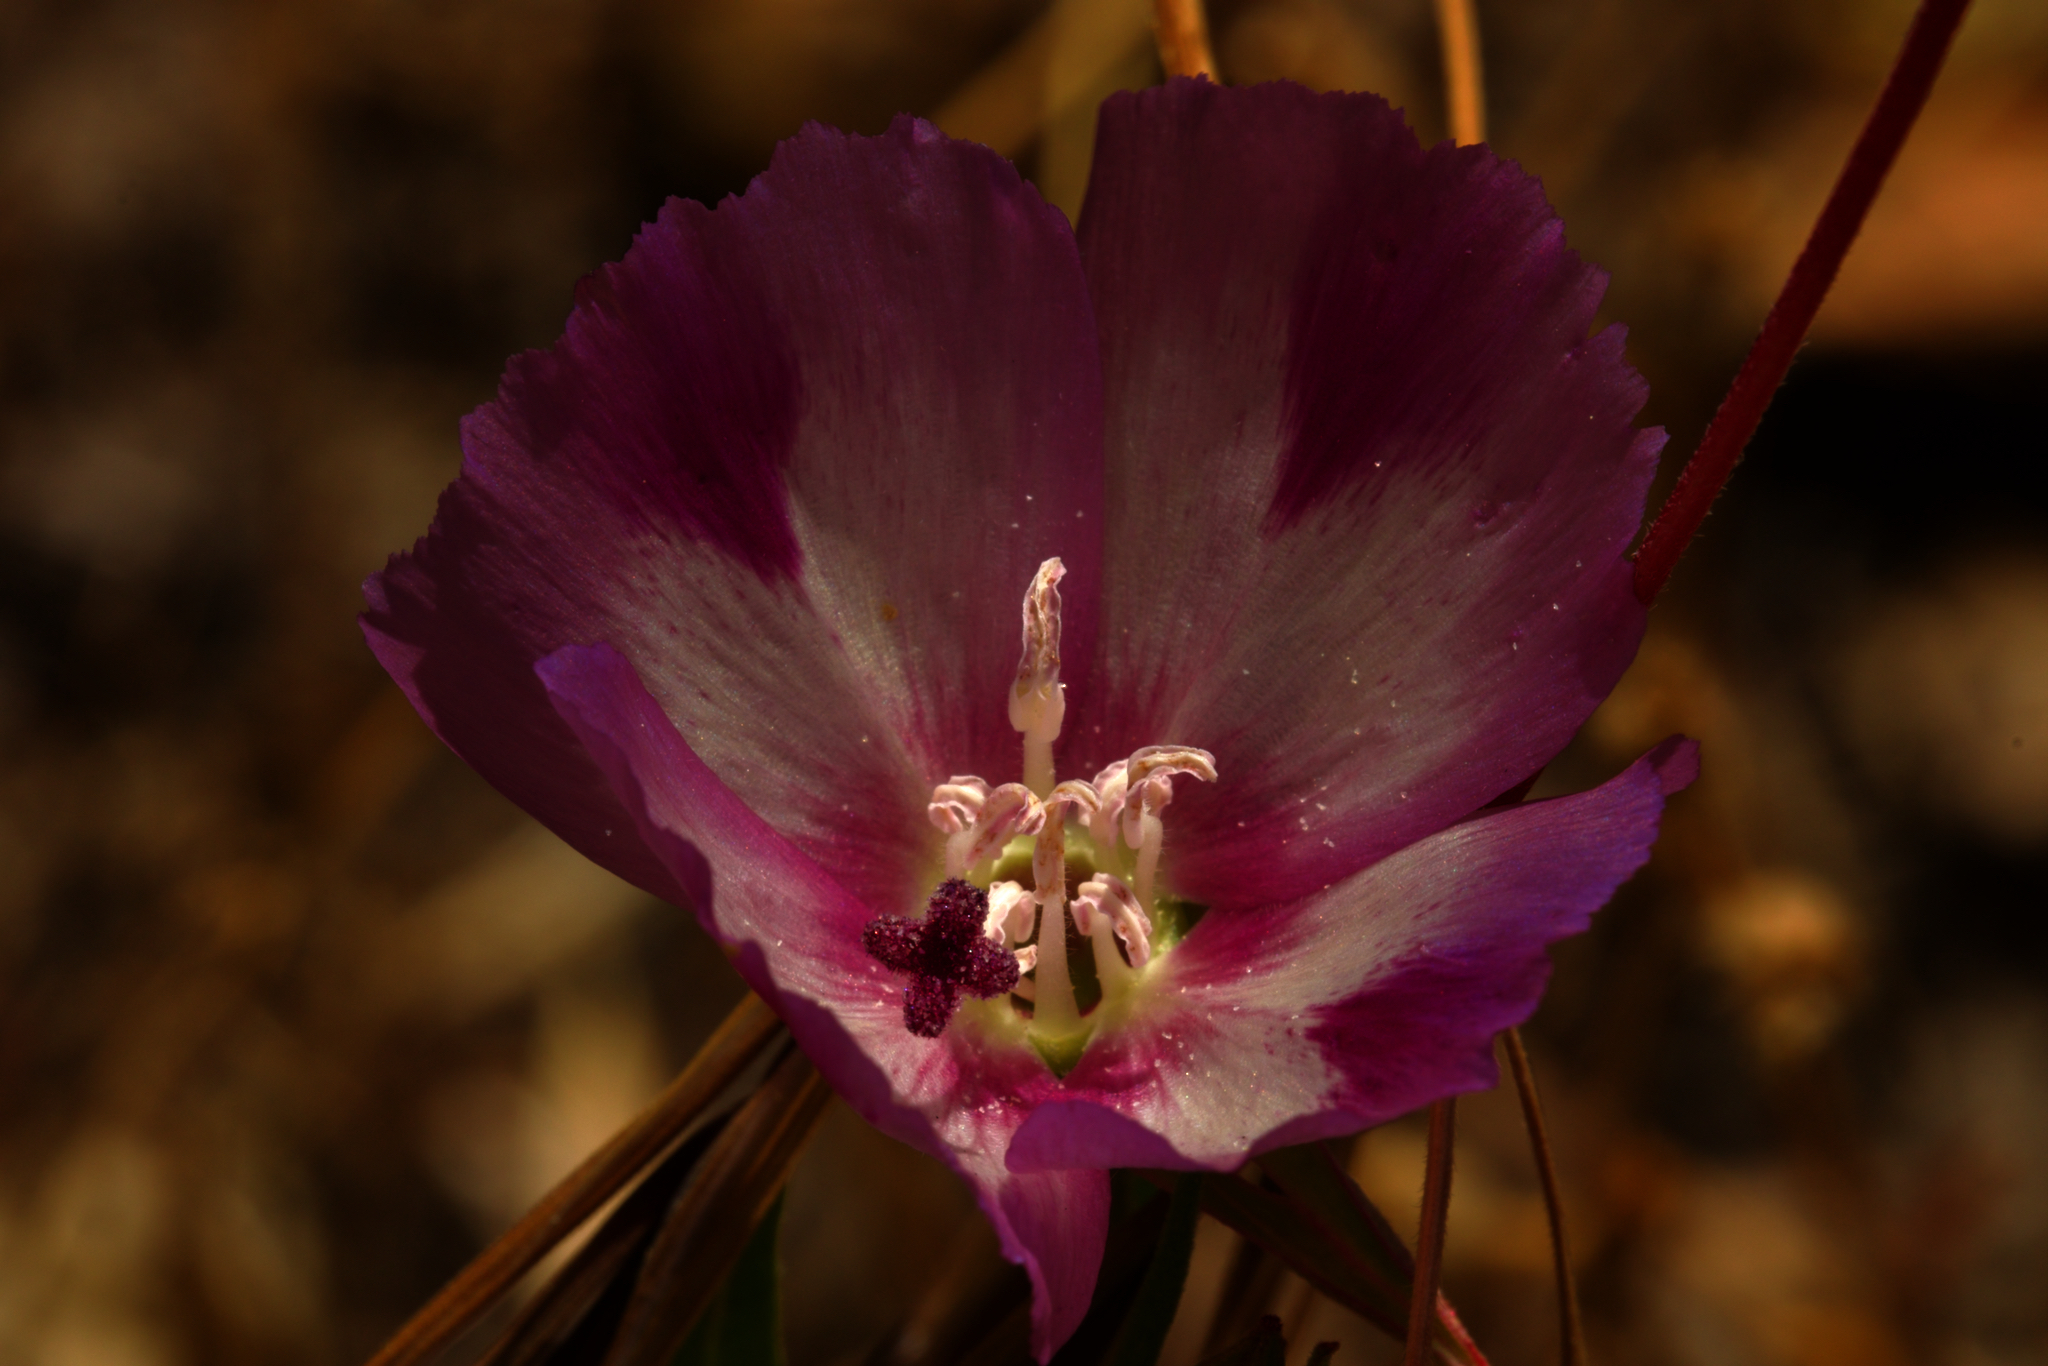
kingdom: Plantae
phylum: Tracheophyta
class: Magnoliopsida
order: Myrtales
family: Onagraceae
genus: Clarkia
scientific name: Clarkia purpurea
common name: Purple clarkia
